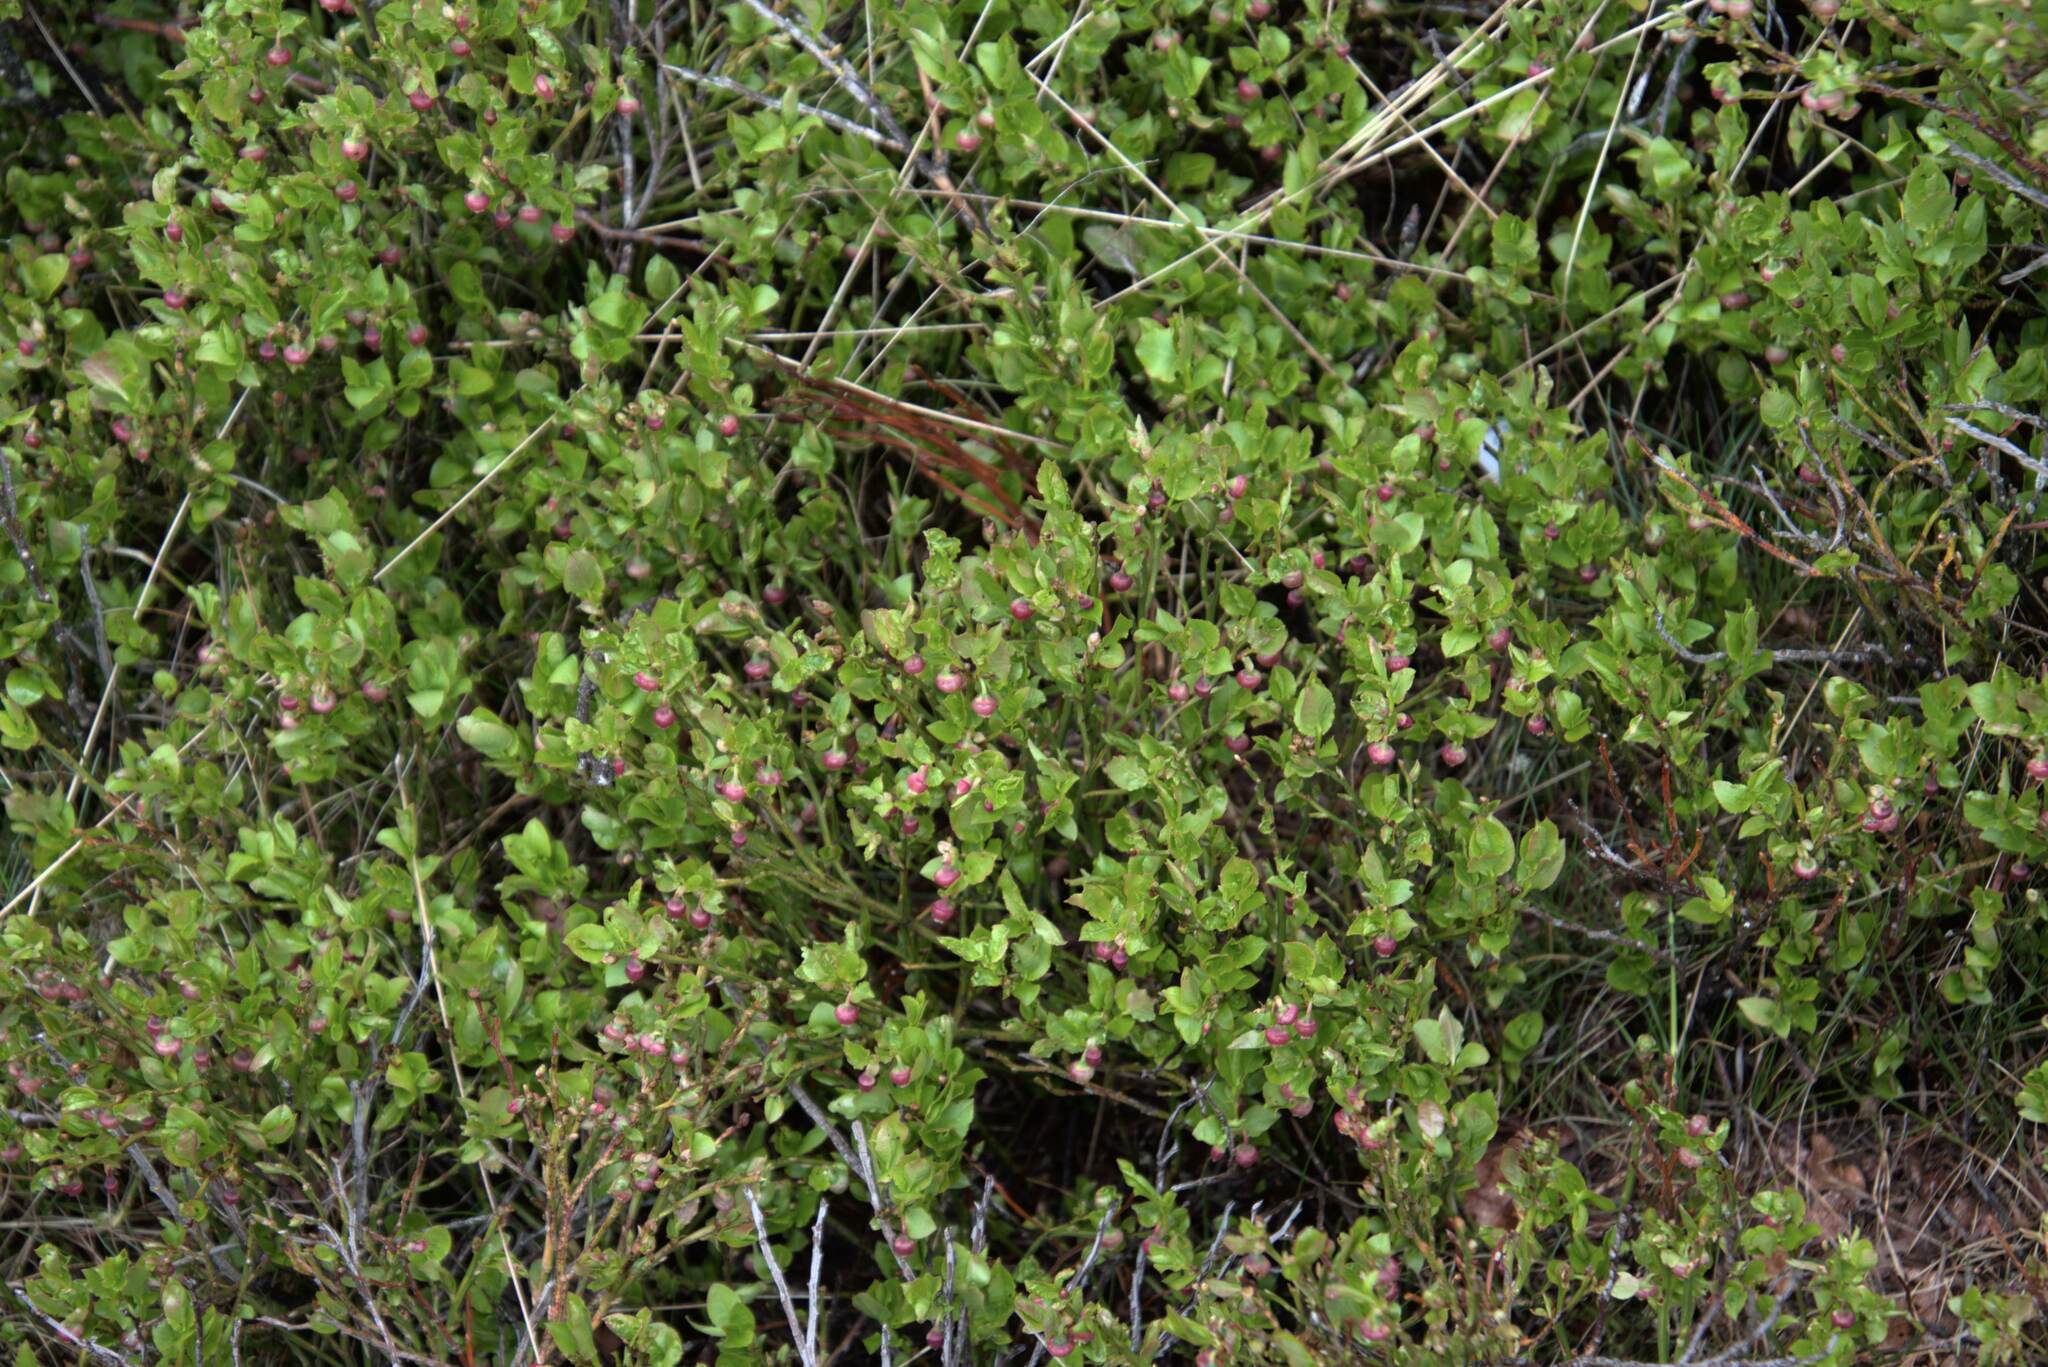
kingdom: Plantae
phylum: Tracheophyta
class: Magnoliopsida
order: Ericales
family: Ericaceae
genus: Vaccinium
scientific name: Vaccinium myrtillus
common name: Bilberry
